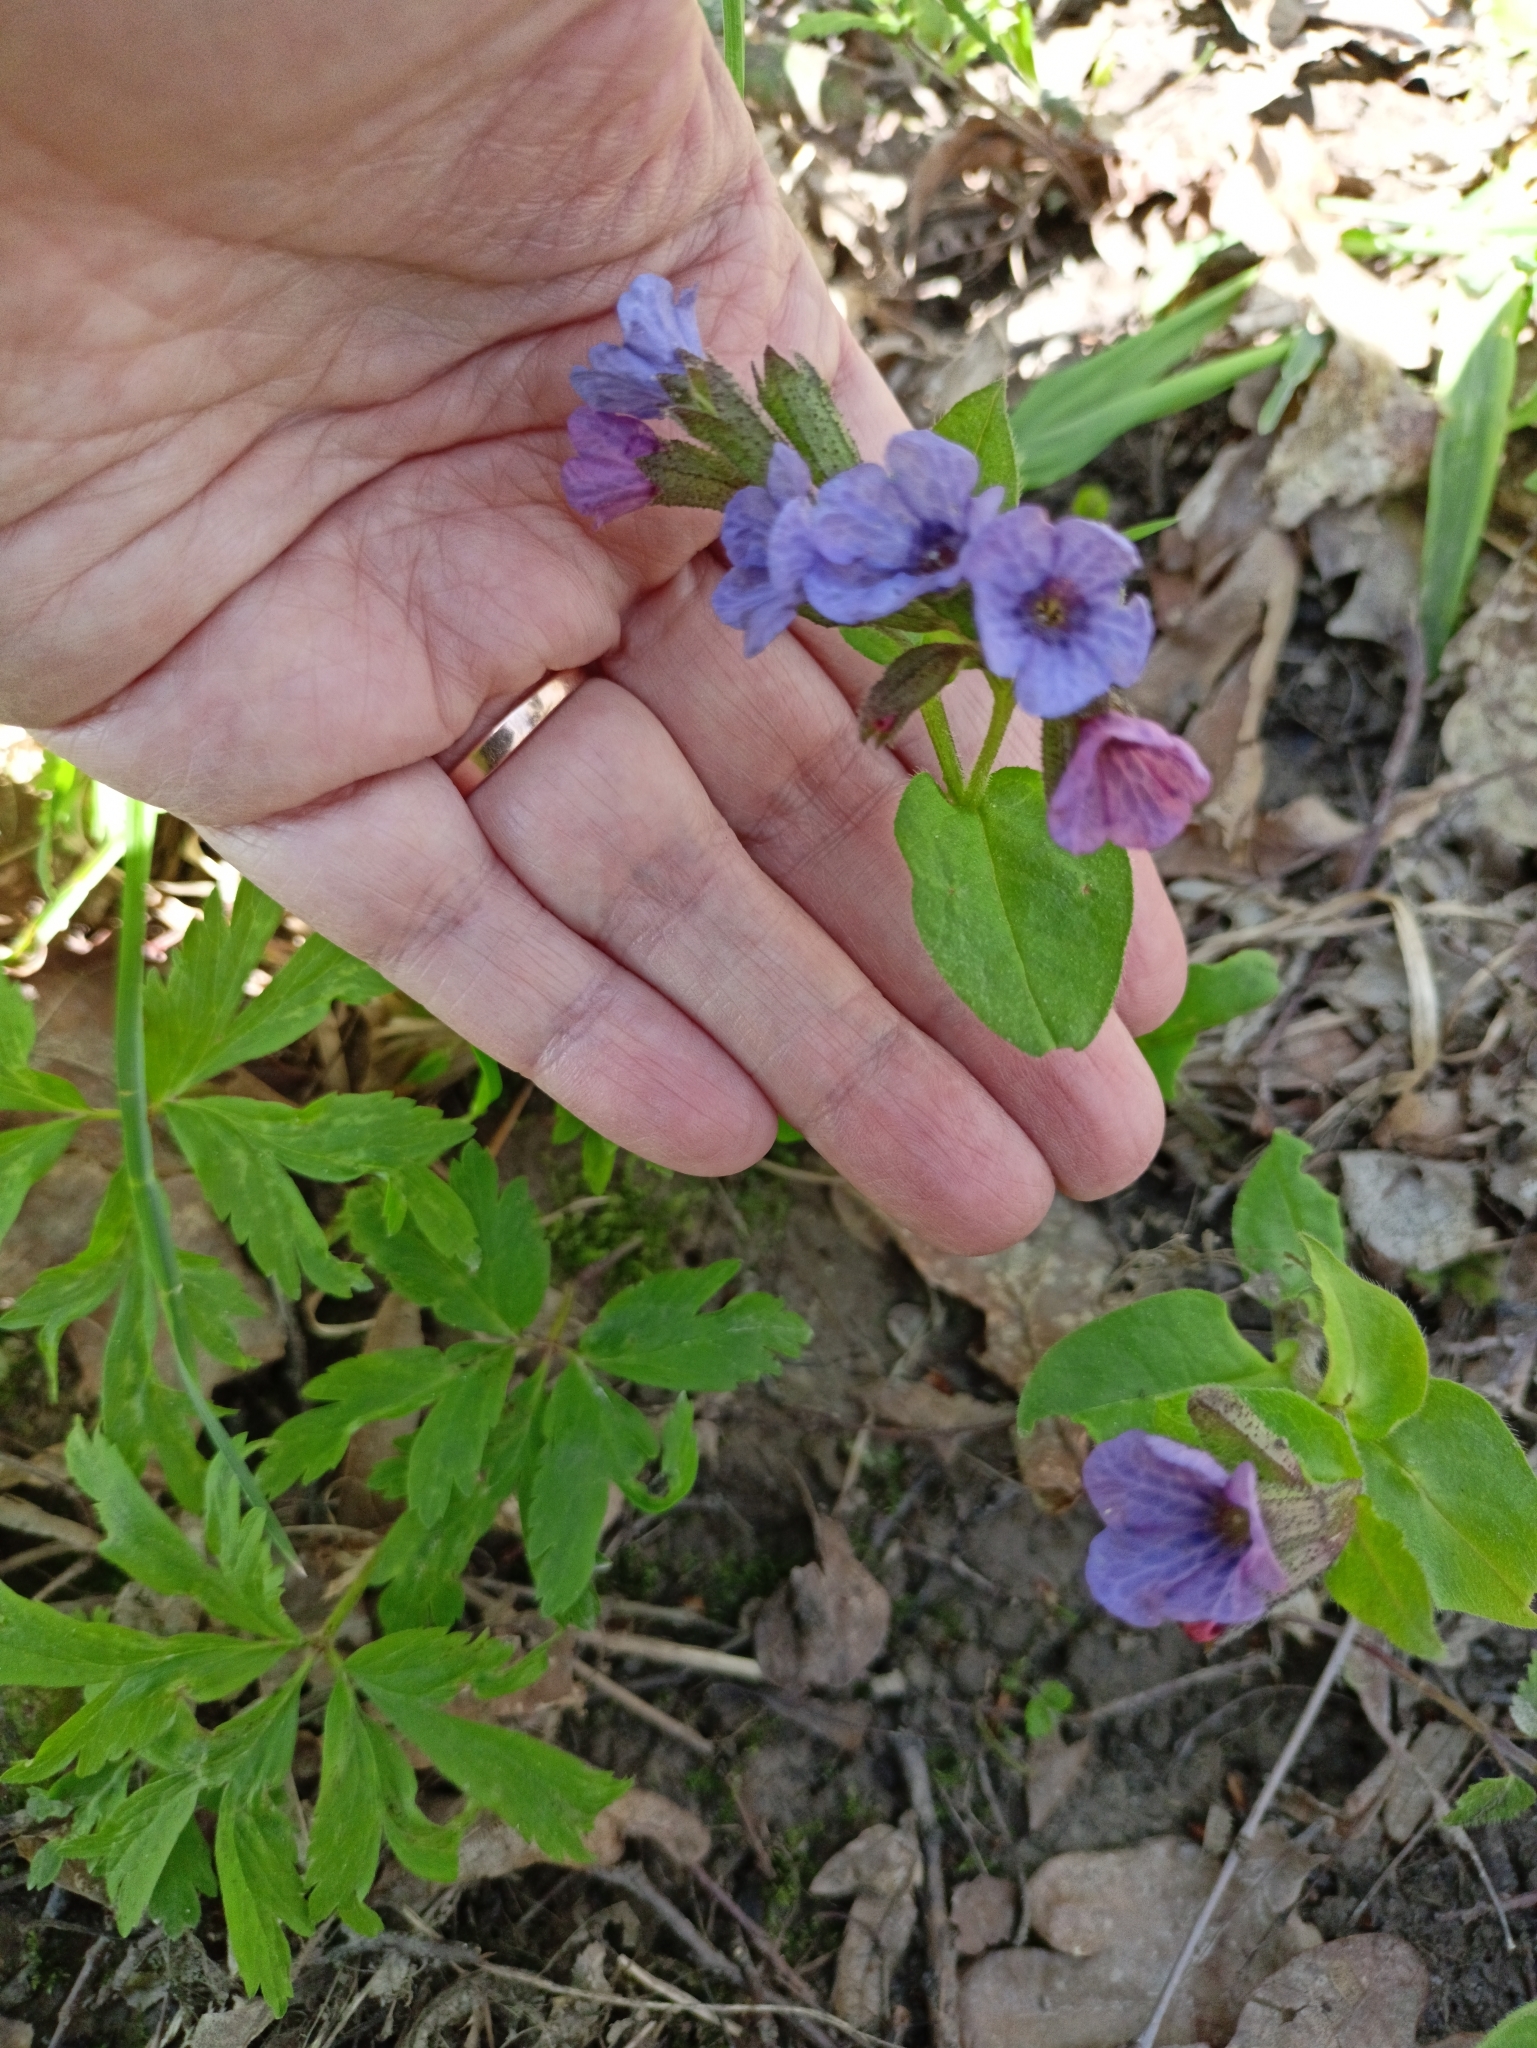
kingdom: Plantae
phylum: Tracheophyta
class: Magnoliopsida
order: Boraginales
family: Boraginaceae
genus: Pulmonaria
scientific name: Pulmonaria obscura
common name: Suffolk lungwort
